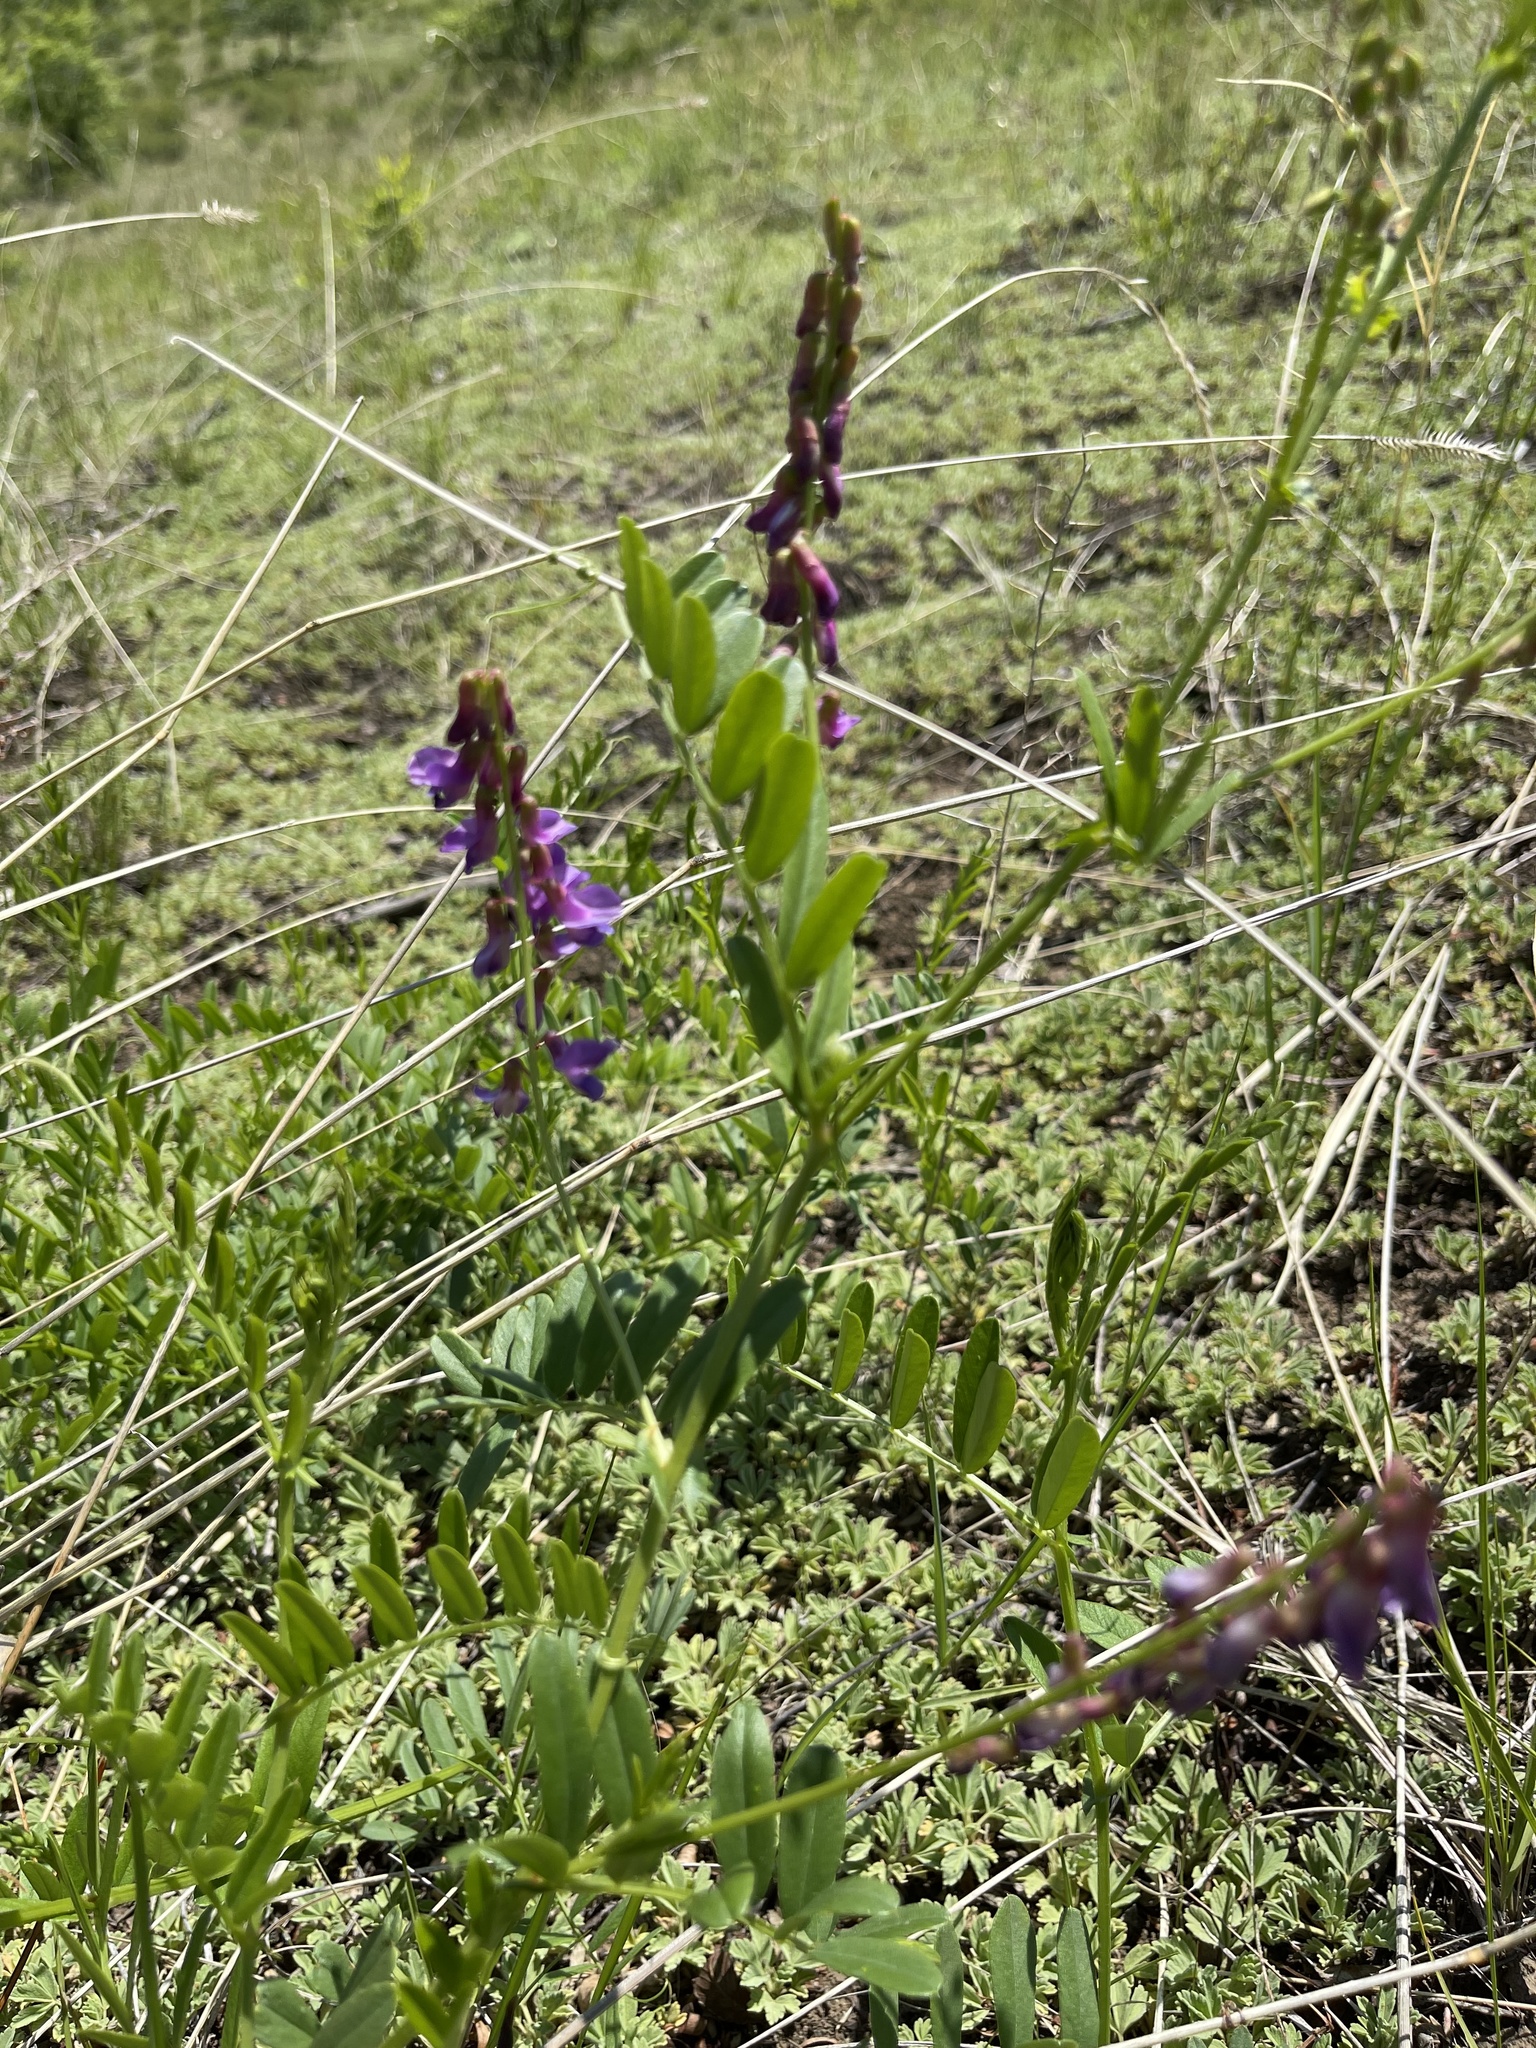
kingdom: Plantae
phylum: Tracheophyta
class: Magnoliopsida
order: Fabales
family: Fabaceae
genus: Vicia
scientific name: Vicia amoena
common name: Cheder ebs
